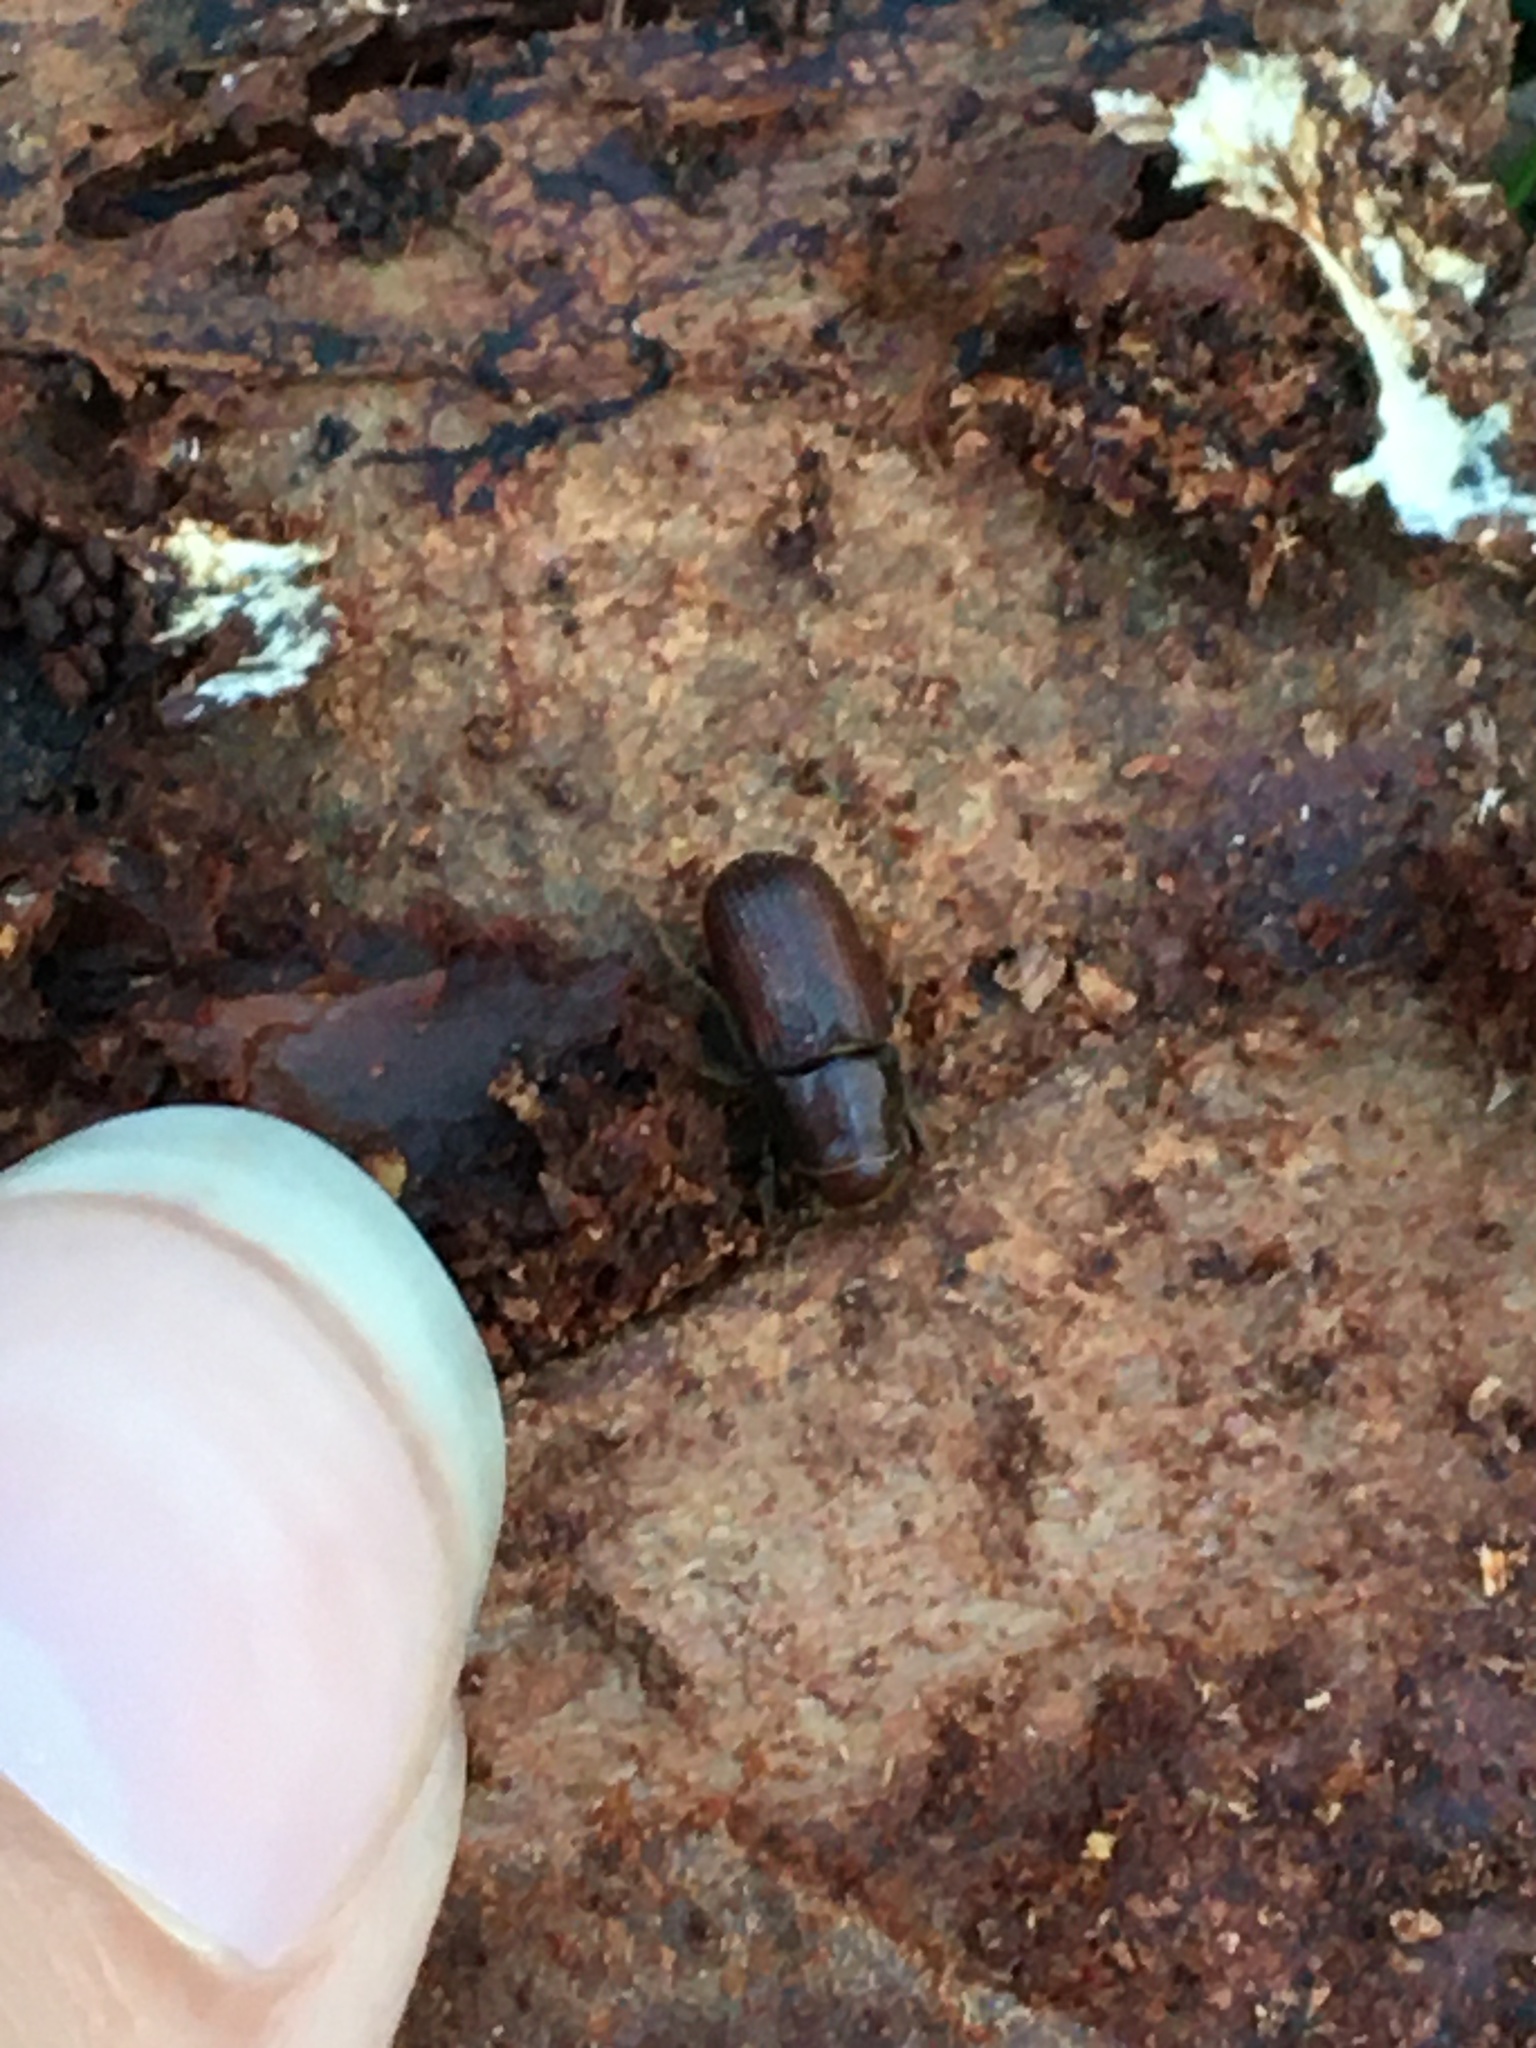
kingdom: Animalia
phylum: Arthropoda
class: Insecta
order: Coleoptera
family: Curculionidae
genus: Dendroctonus
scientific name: Dendroctonus valens
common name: Red turpentine beetle
